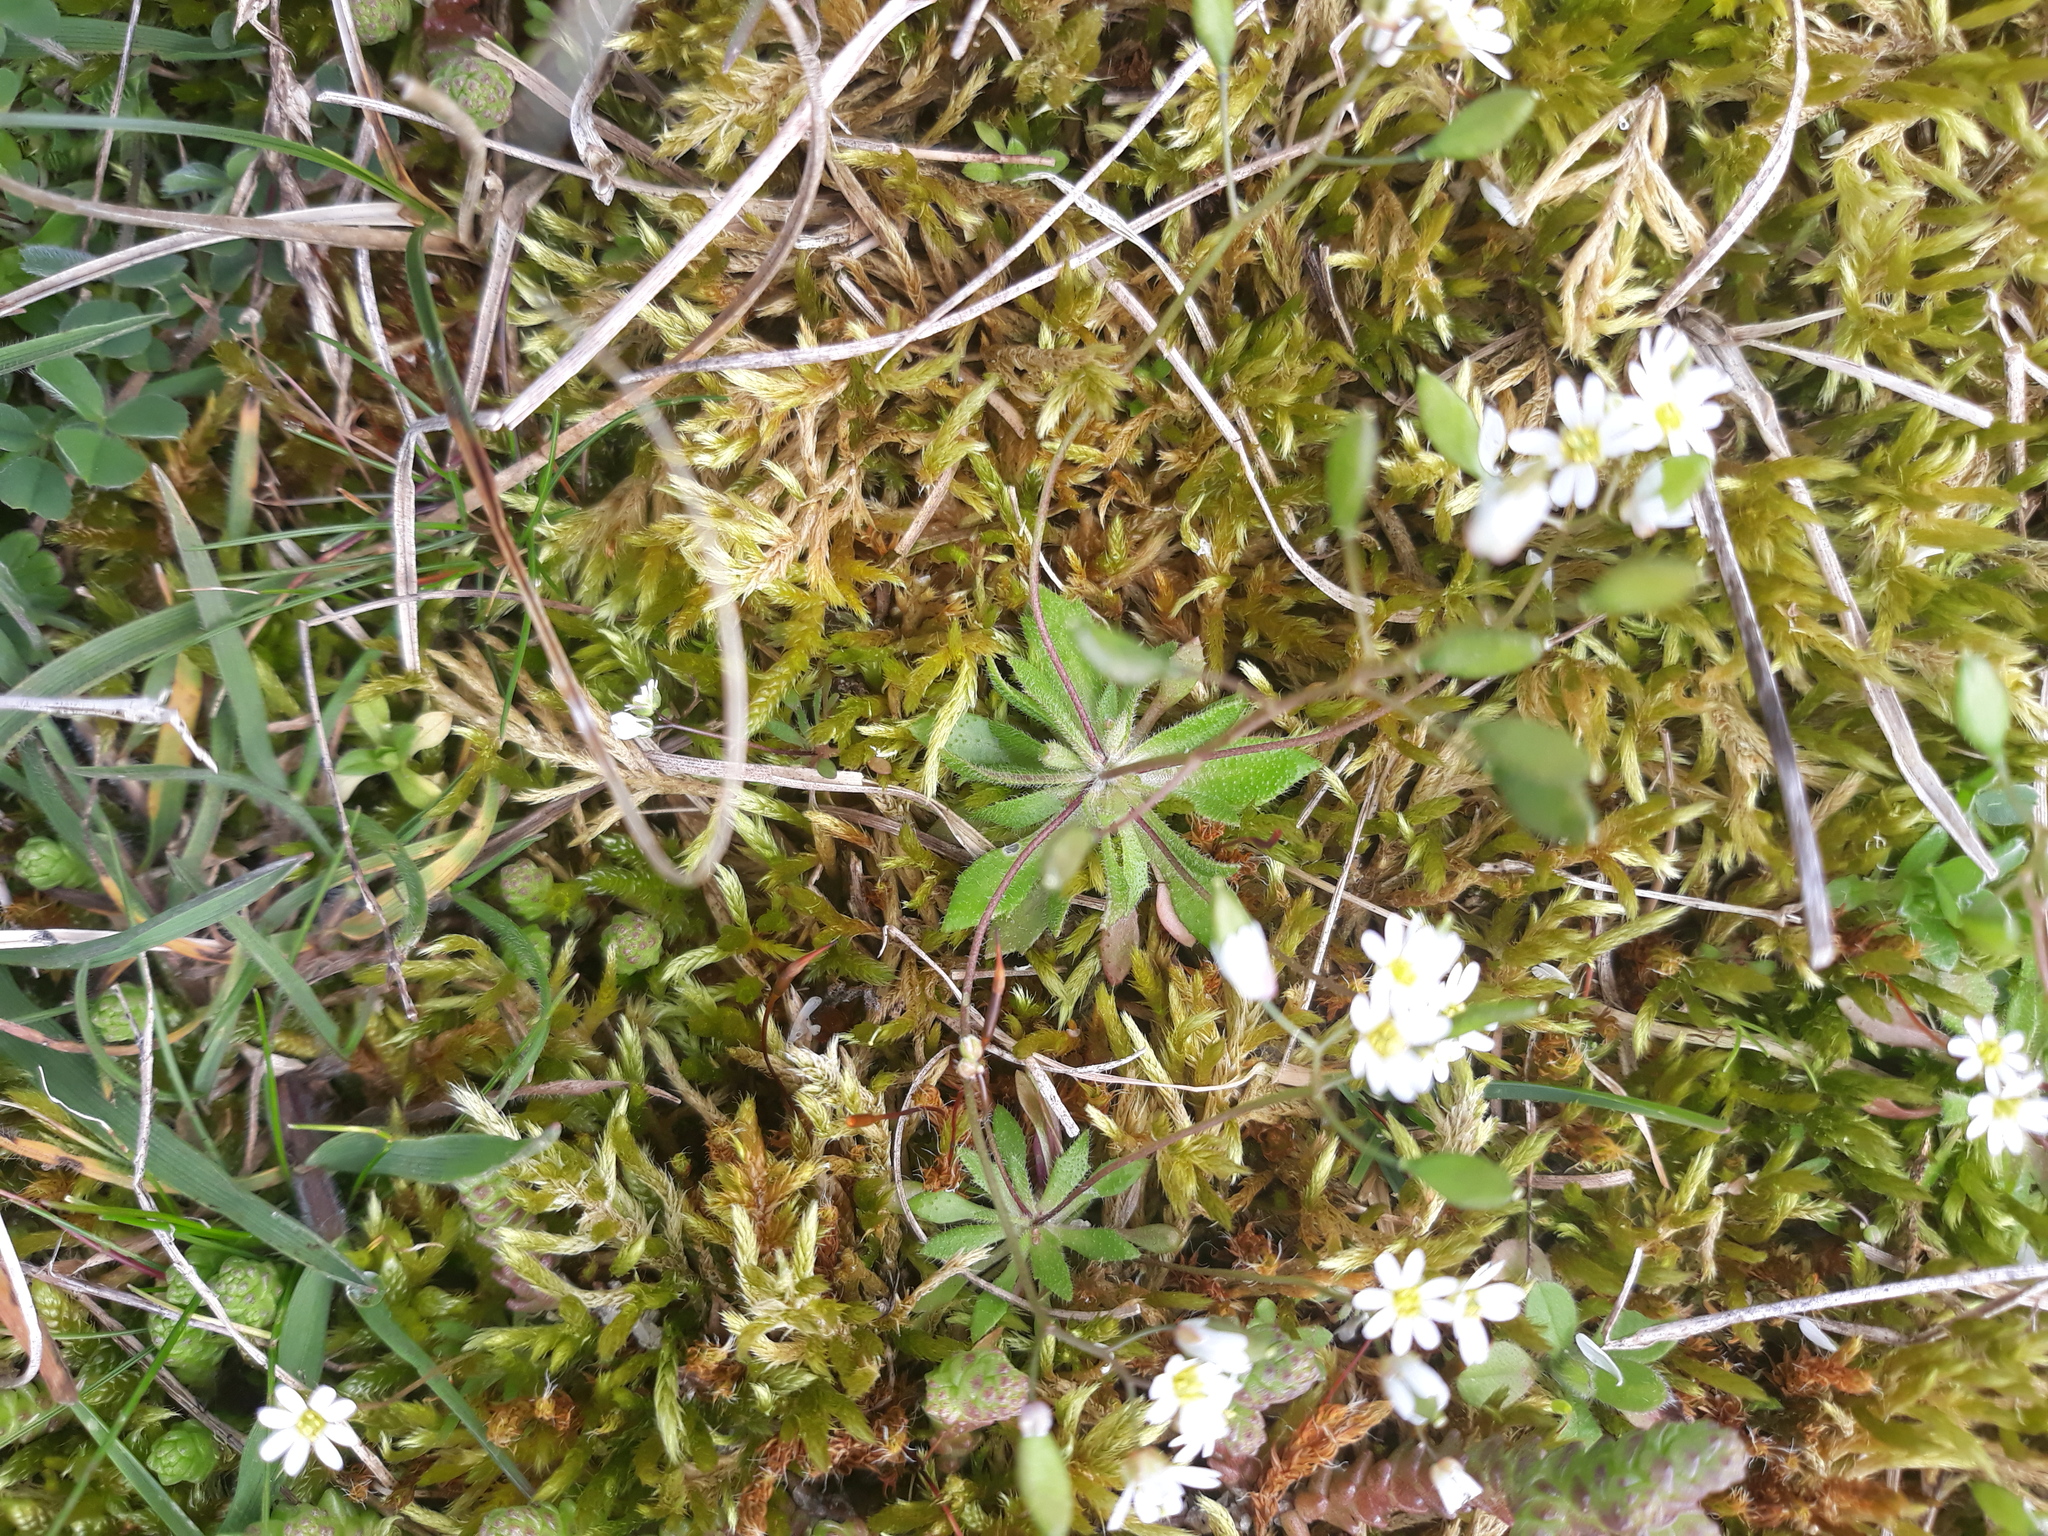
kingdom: Plantae
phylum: Tracheophyta
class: Magnoliopsida
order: Brassicales
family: Brassicaceae
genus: Draba
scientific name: Draba verna
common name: Spring draba
